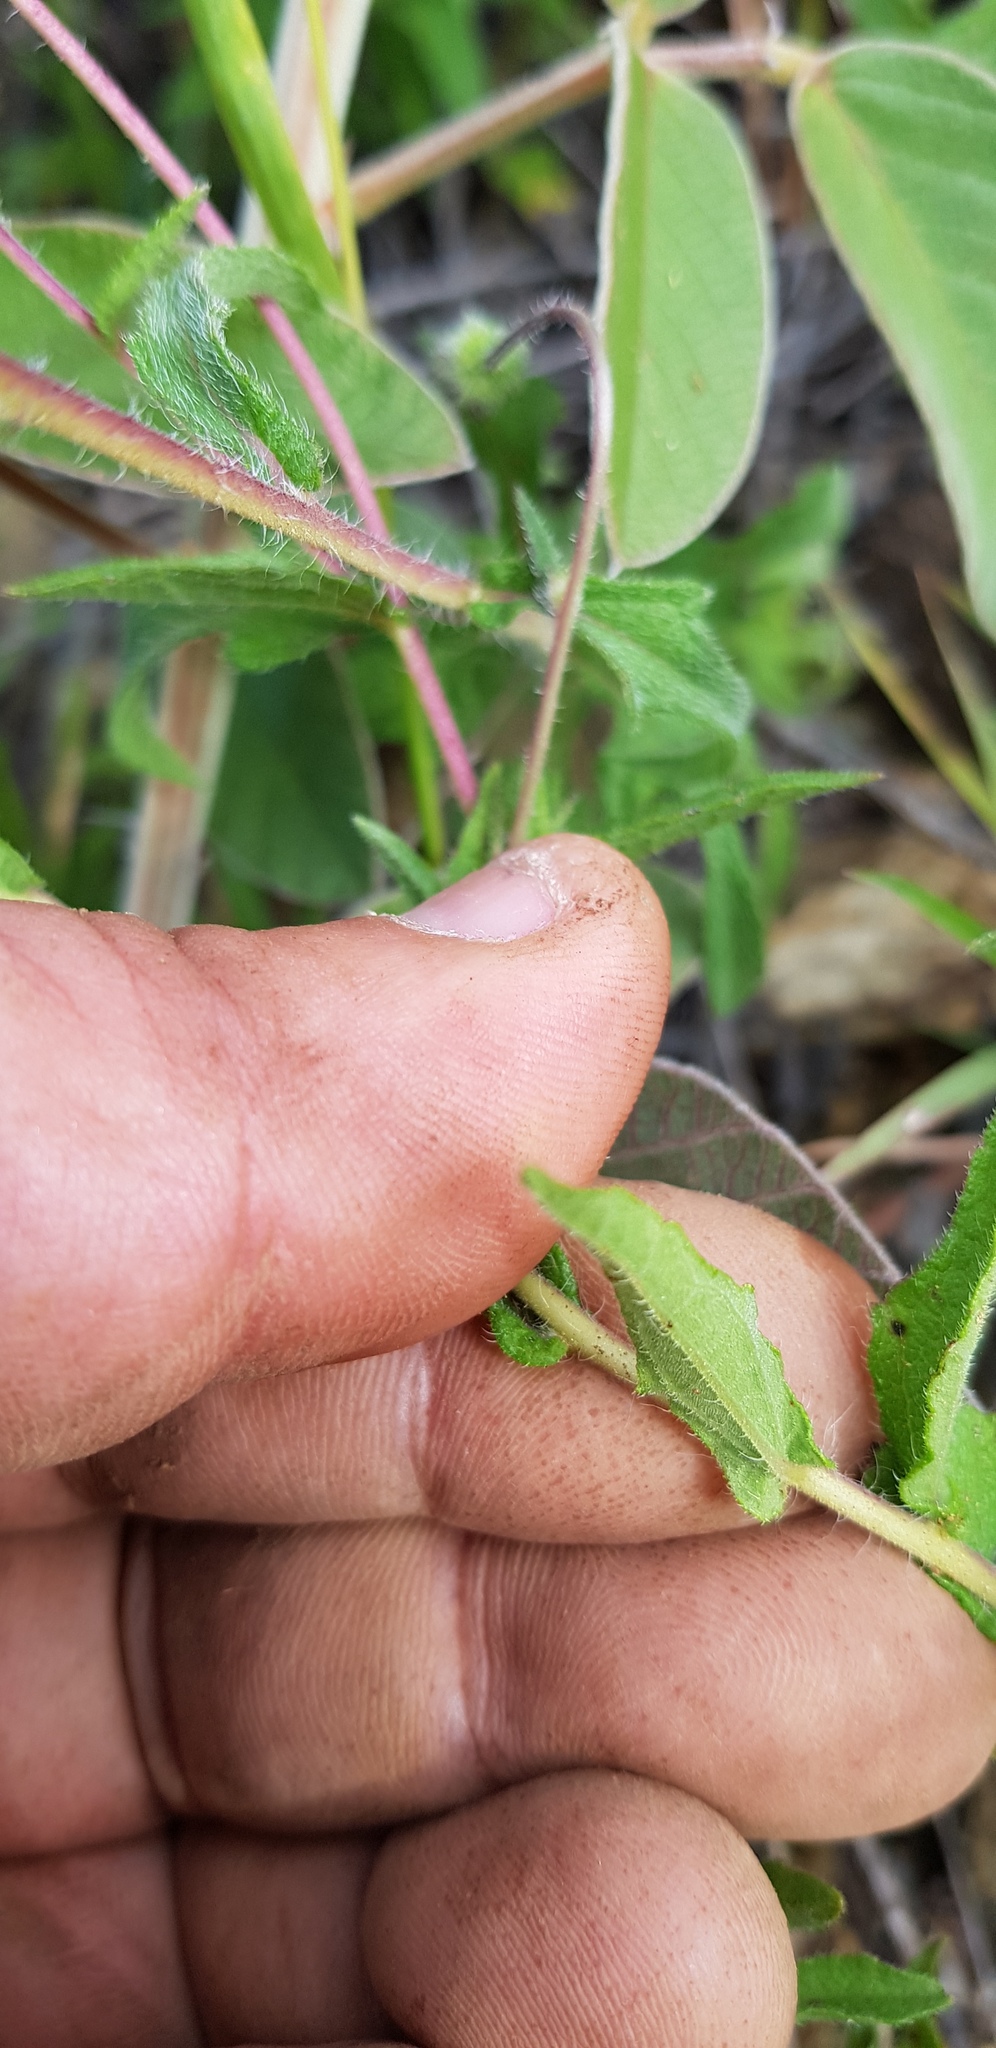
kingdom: Plantae
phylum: Tracheophyta
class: Magnoliopsida
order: Asterales
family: Asteraceae
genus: Simsia
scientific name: Simsia sanguinea
